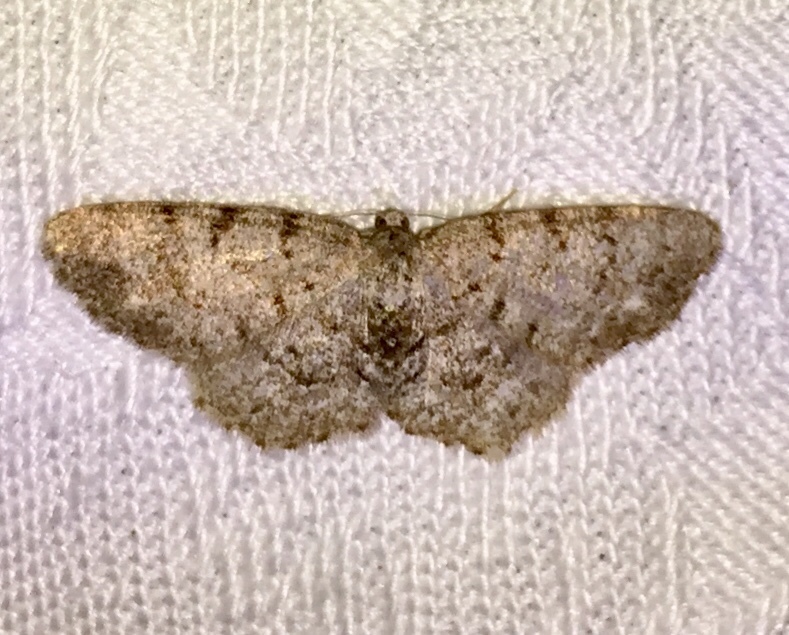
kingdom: Animalia
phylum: Arthropoda
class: Insecta
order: Lepidoptera
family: Geometridae
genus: Aethalura
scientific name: Aethalura intertexta
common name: Four-barred gray
